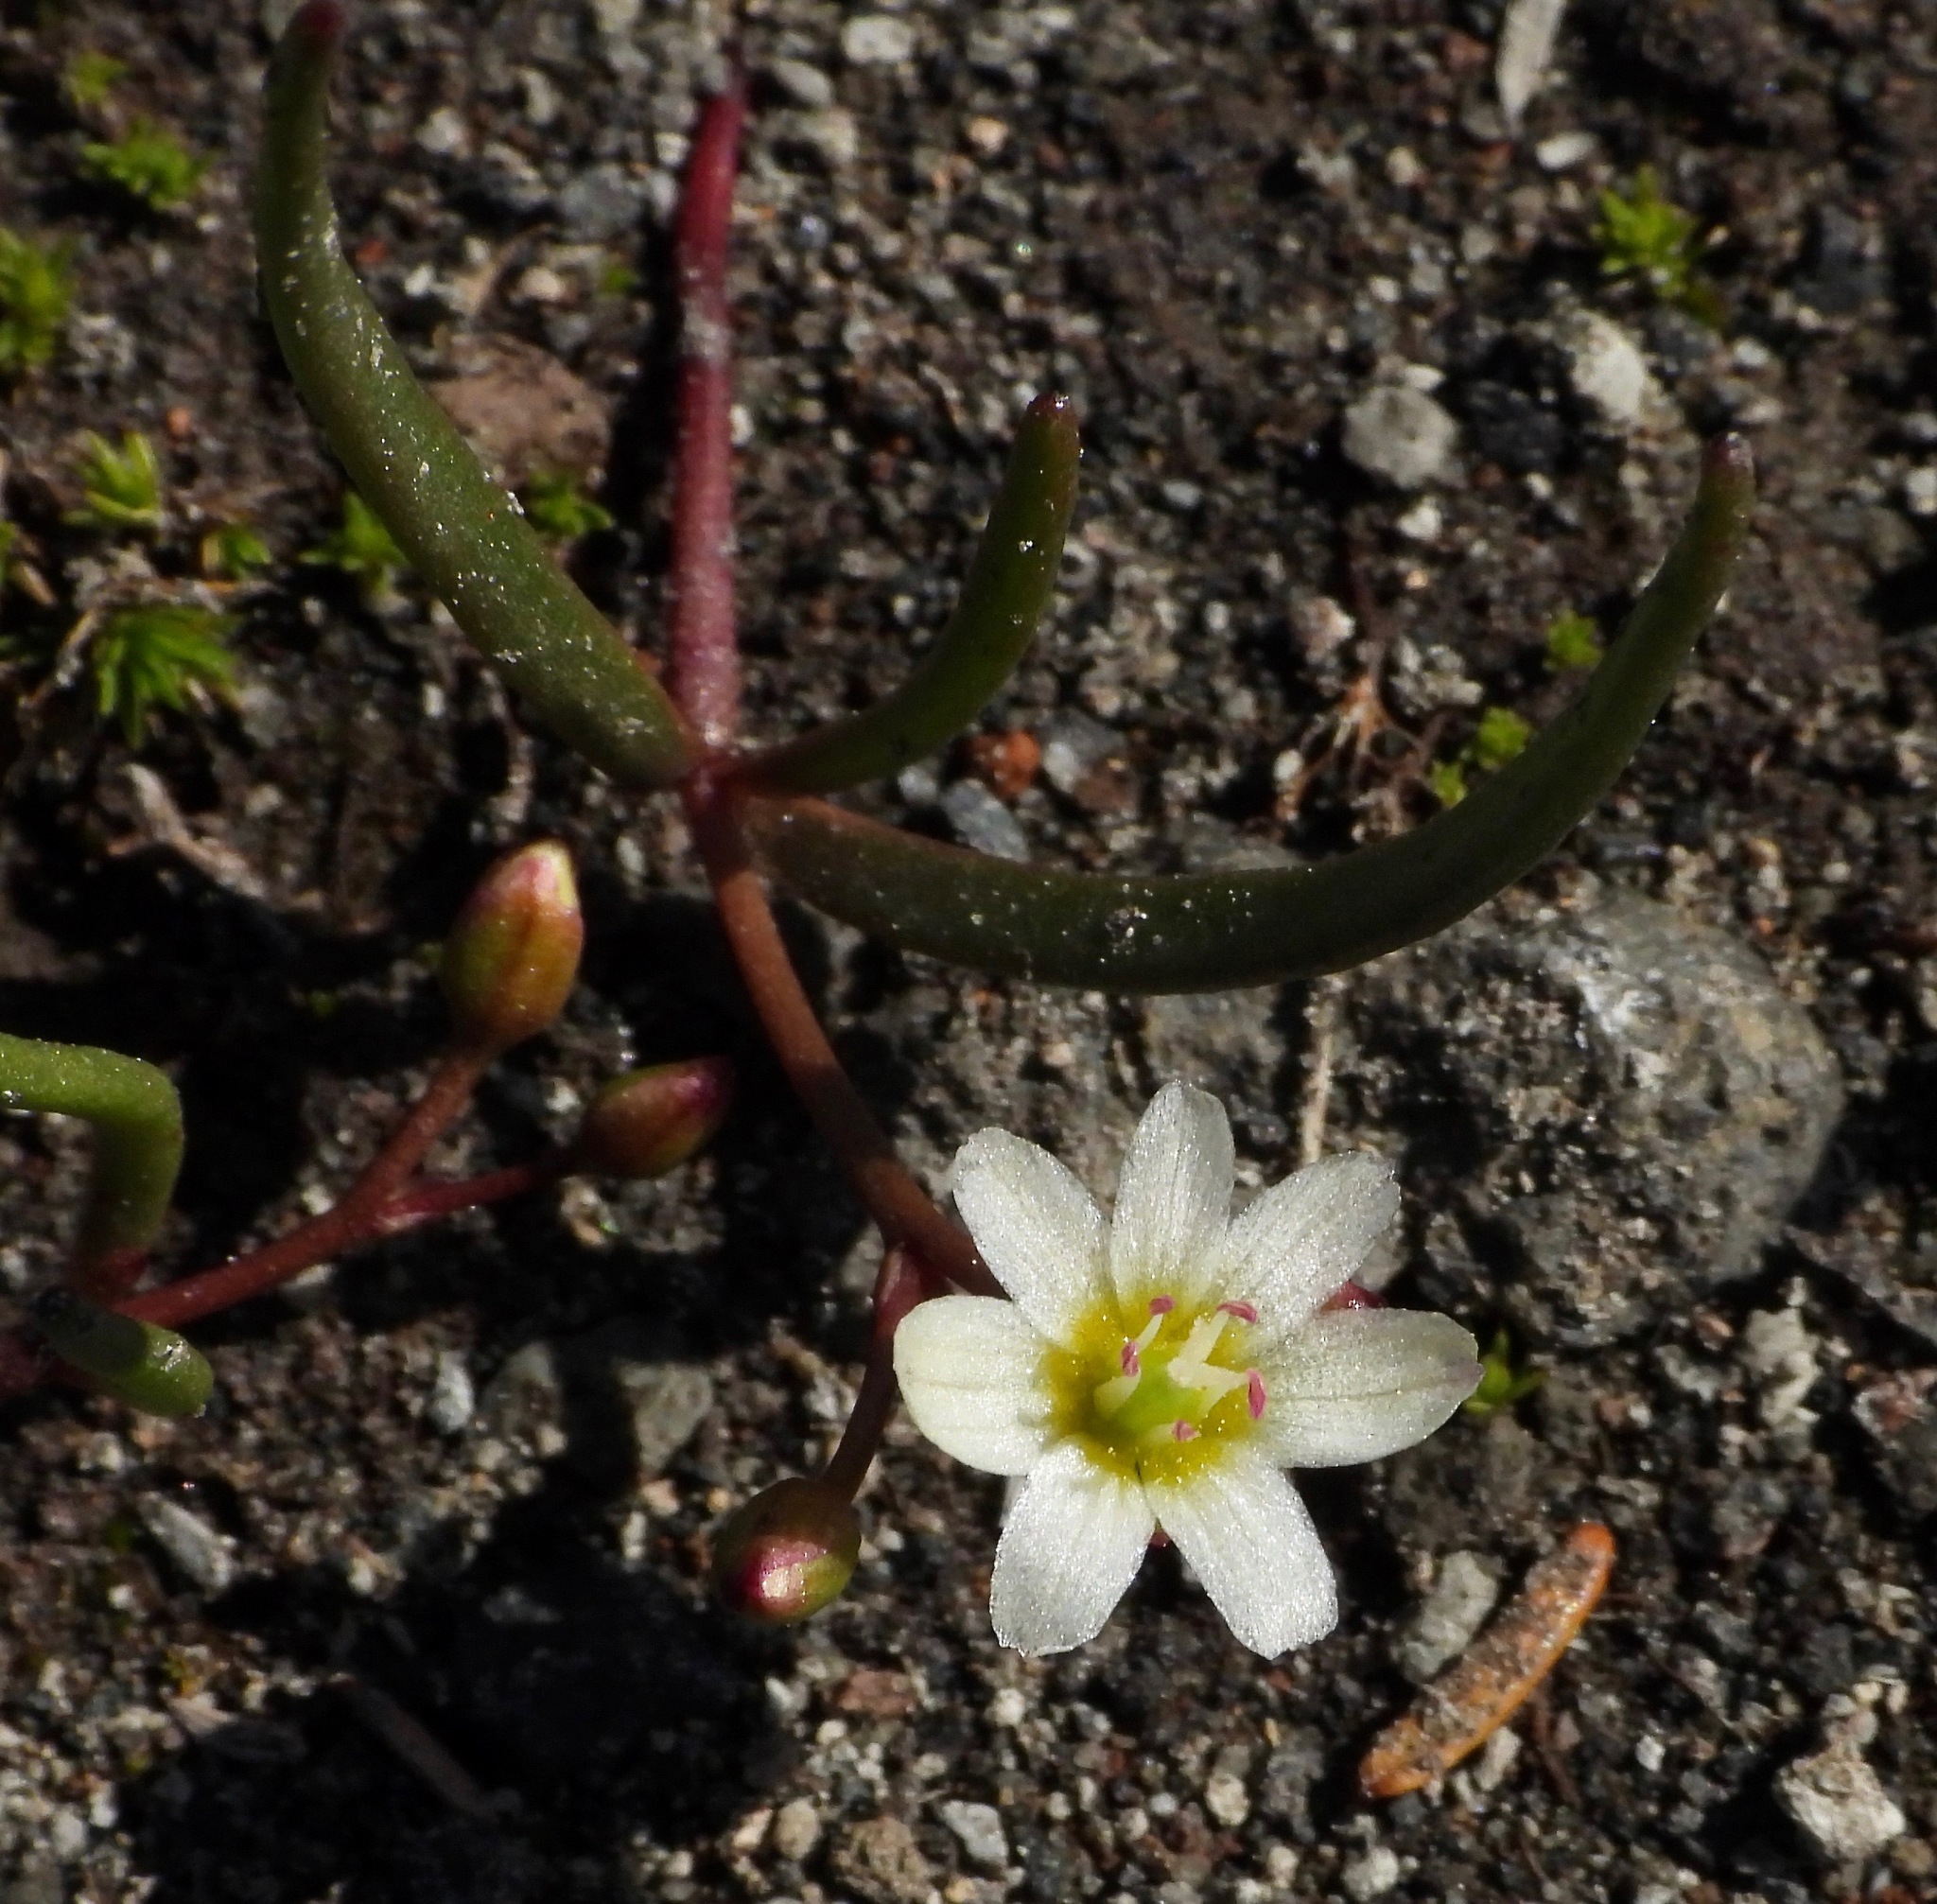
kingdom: Plantae
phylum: Tracheophyta
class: Magnoliopsida
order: Caryophyllales
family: Montiaceae
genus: Lewisia
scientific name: Lewisia triphylla
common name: Three-leaved bitterroot
